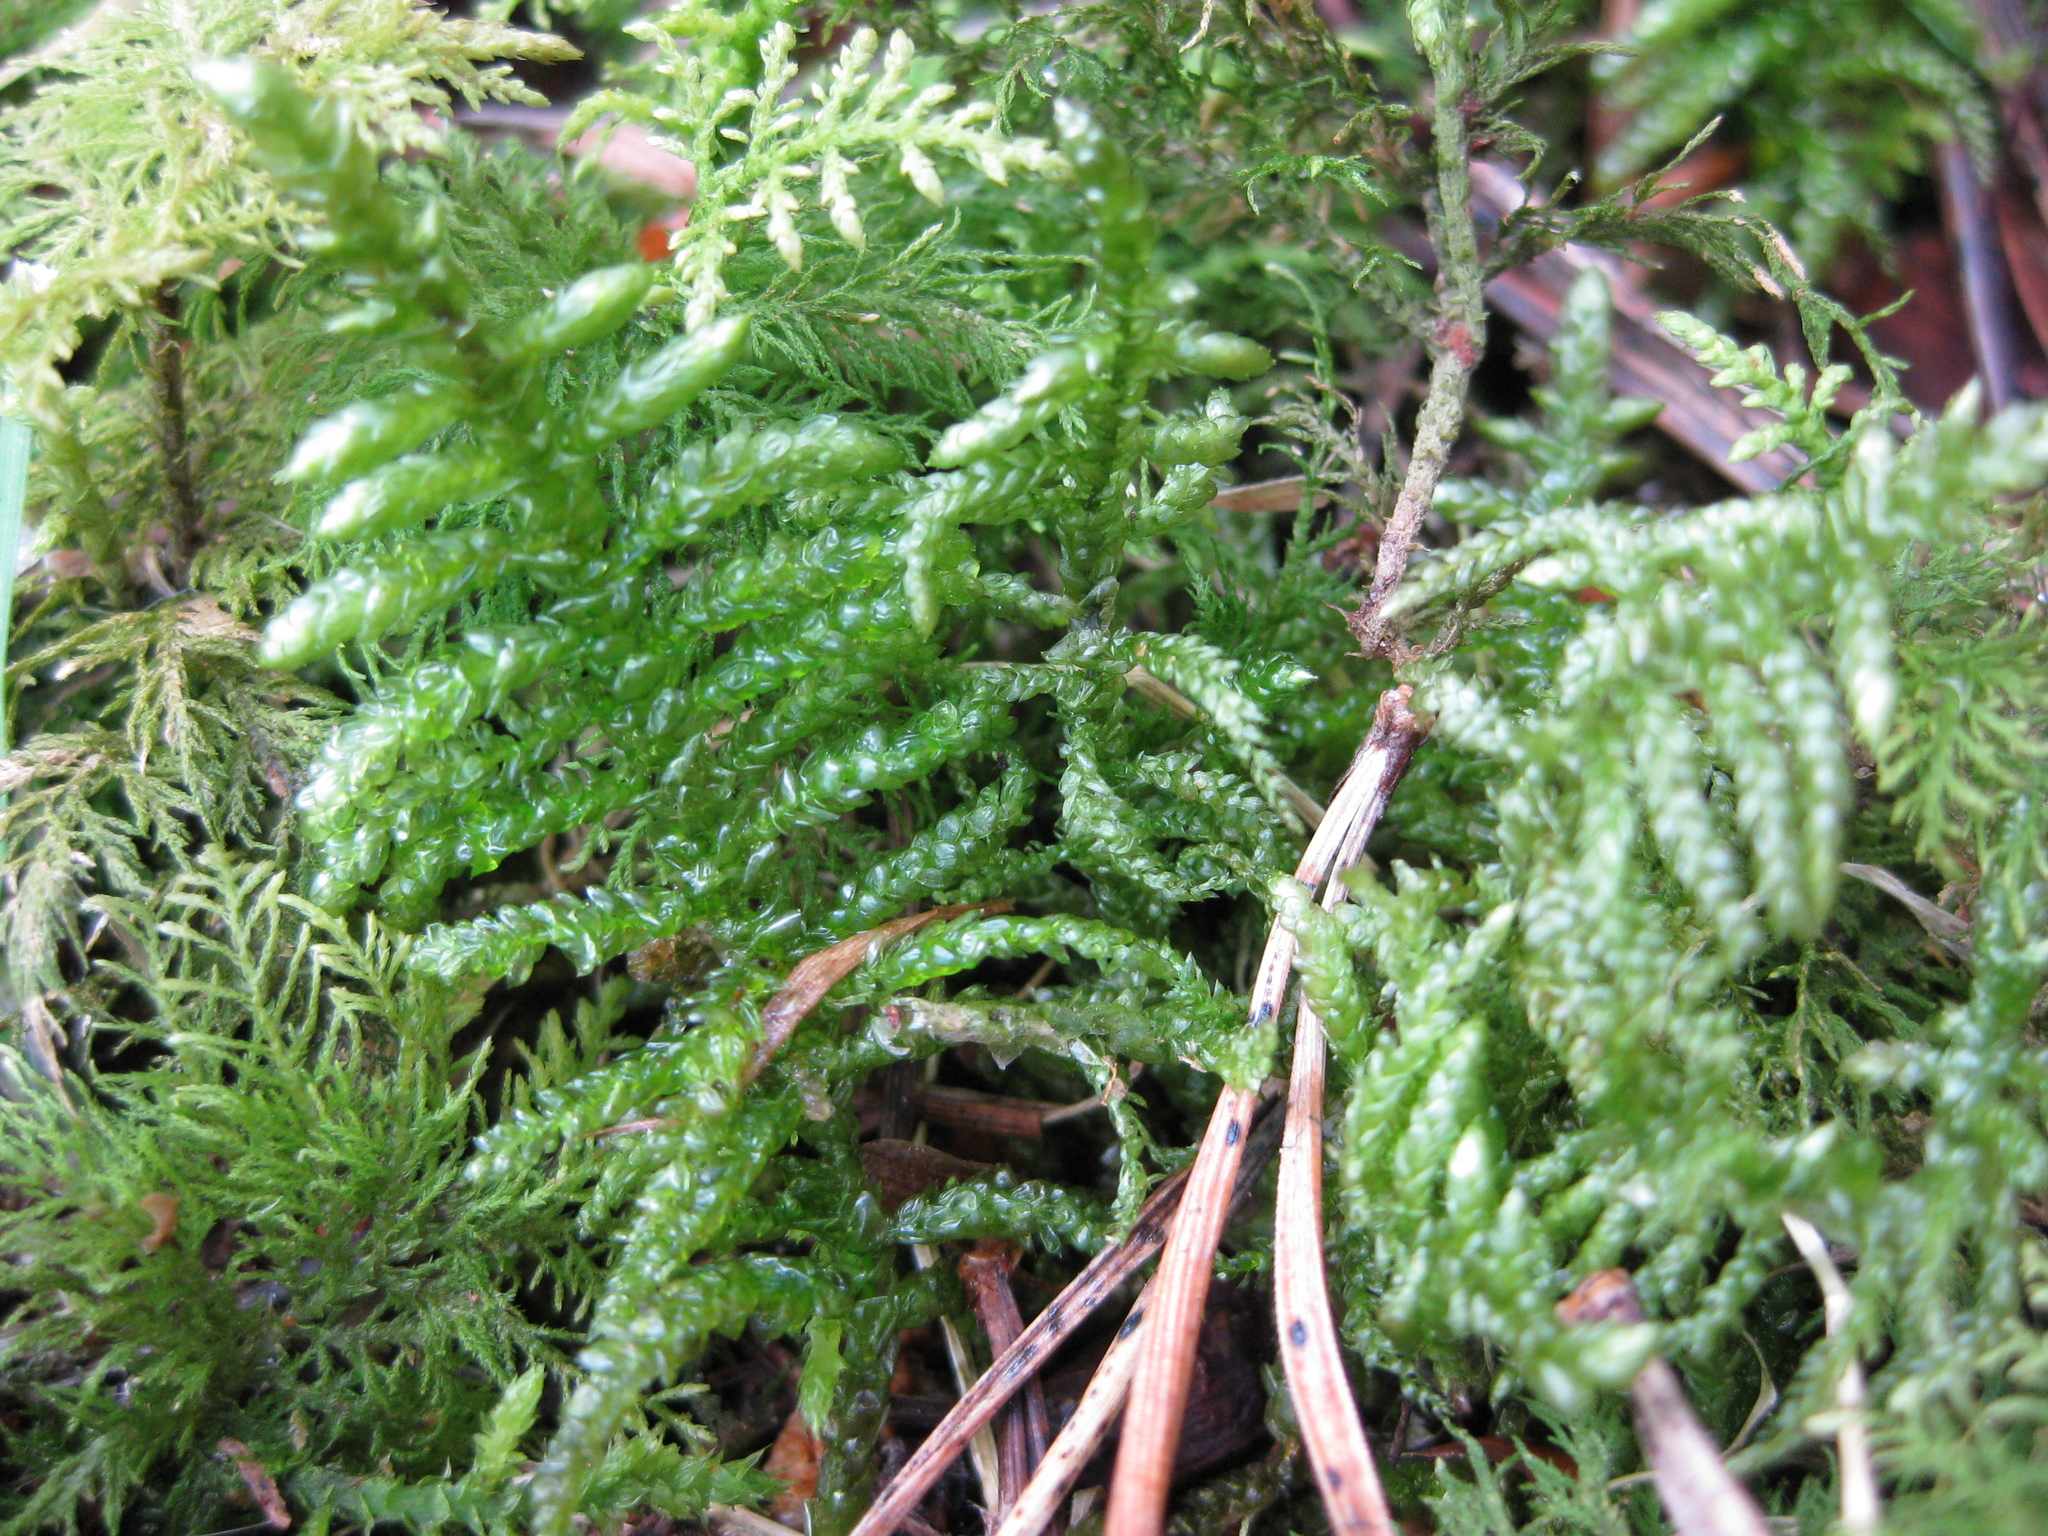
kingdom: Plantae
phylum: Bryophyta
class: Bryopsida
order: Hypnales
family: Brachytheciaceae
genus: Pseudoscleropodium
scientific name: Pseudoscleropodium purum
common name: Neat feather-moss
